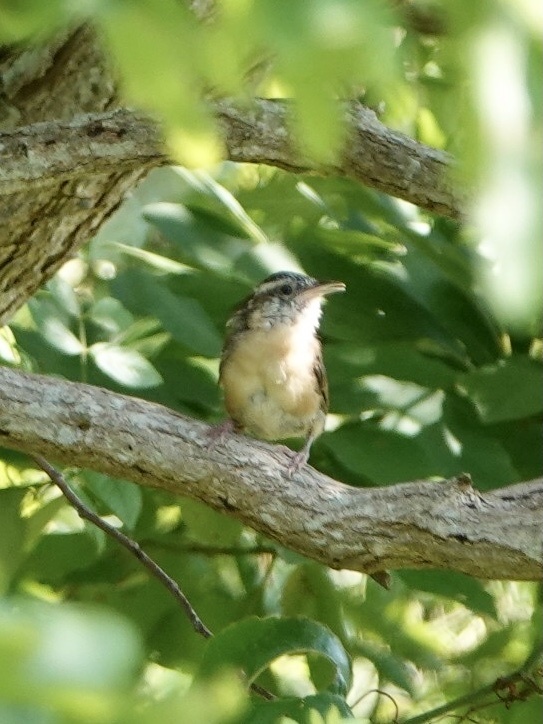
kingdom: Animalia
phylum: Chordata
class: Aves
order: Passeriformes
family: Troglodytidae
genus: Thryothorus
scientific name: Thryothorus ludovicianus
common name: Carolina wren
